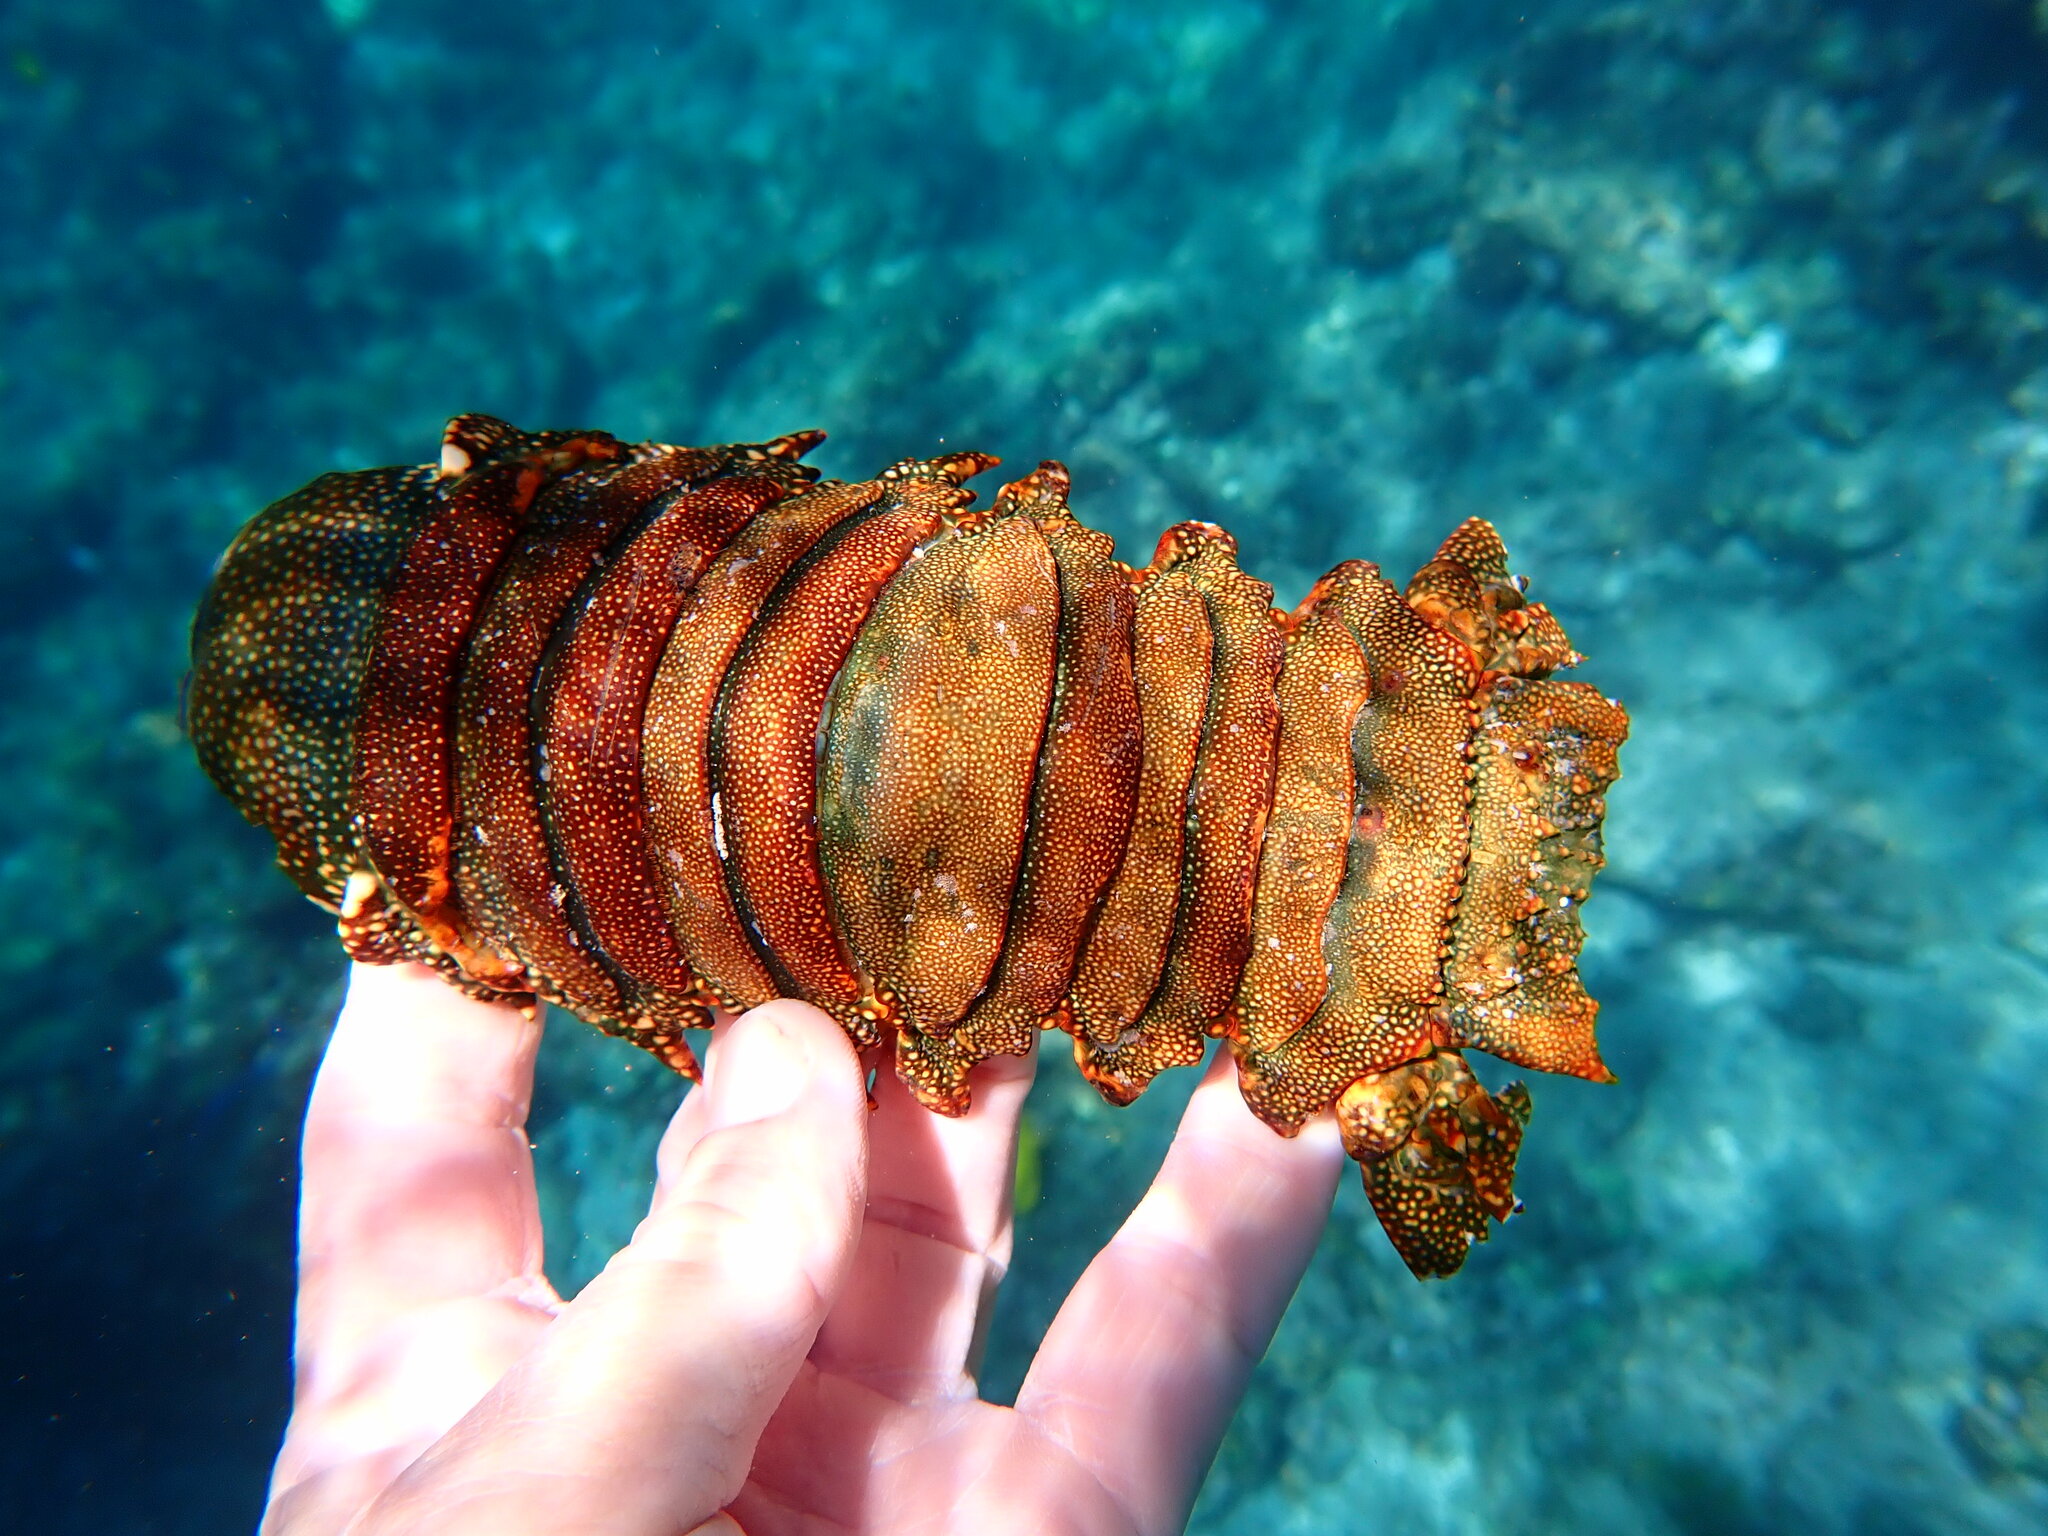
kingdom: Animalia
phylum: Arthropoda
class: Malacostraca
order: Decapoda
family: Palinuridae
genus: Panulirus
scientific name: Panulirus penicillatus
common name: Pronghorn spiny lobster
